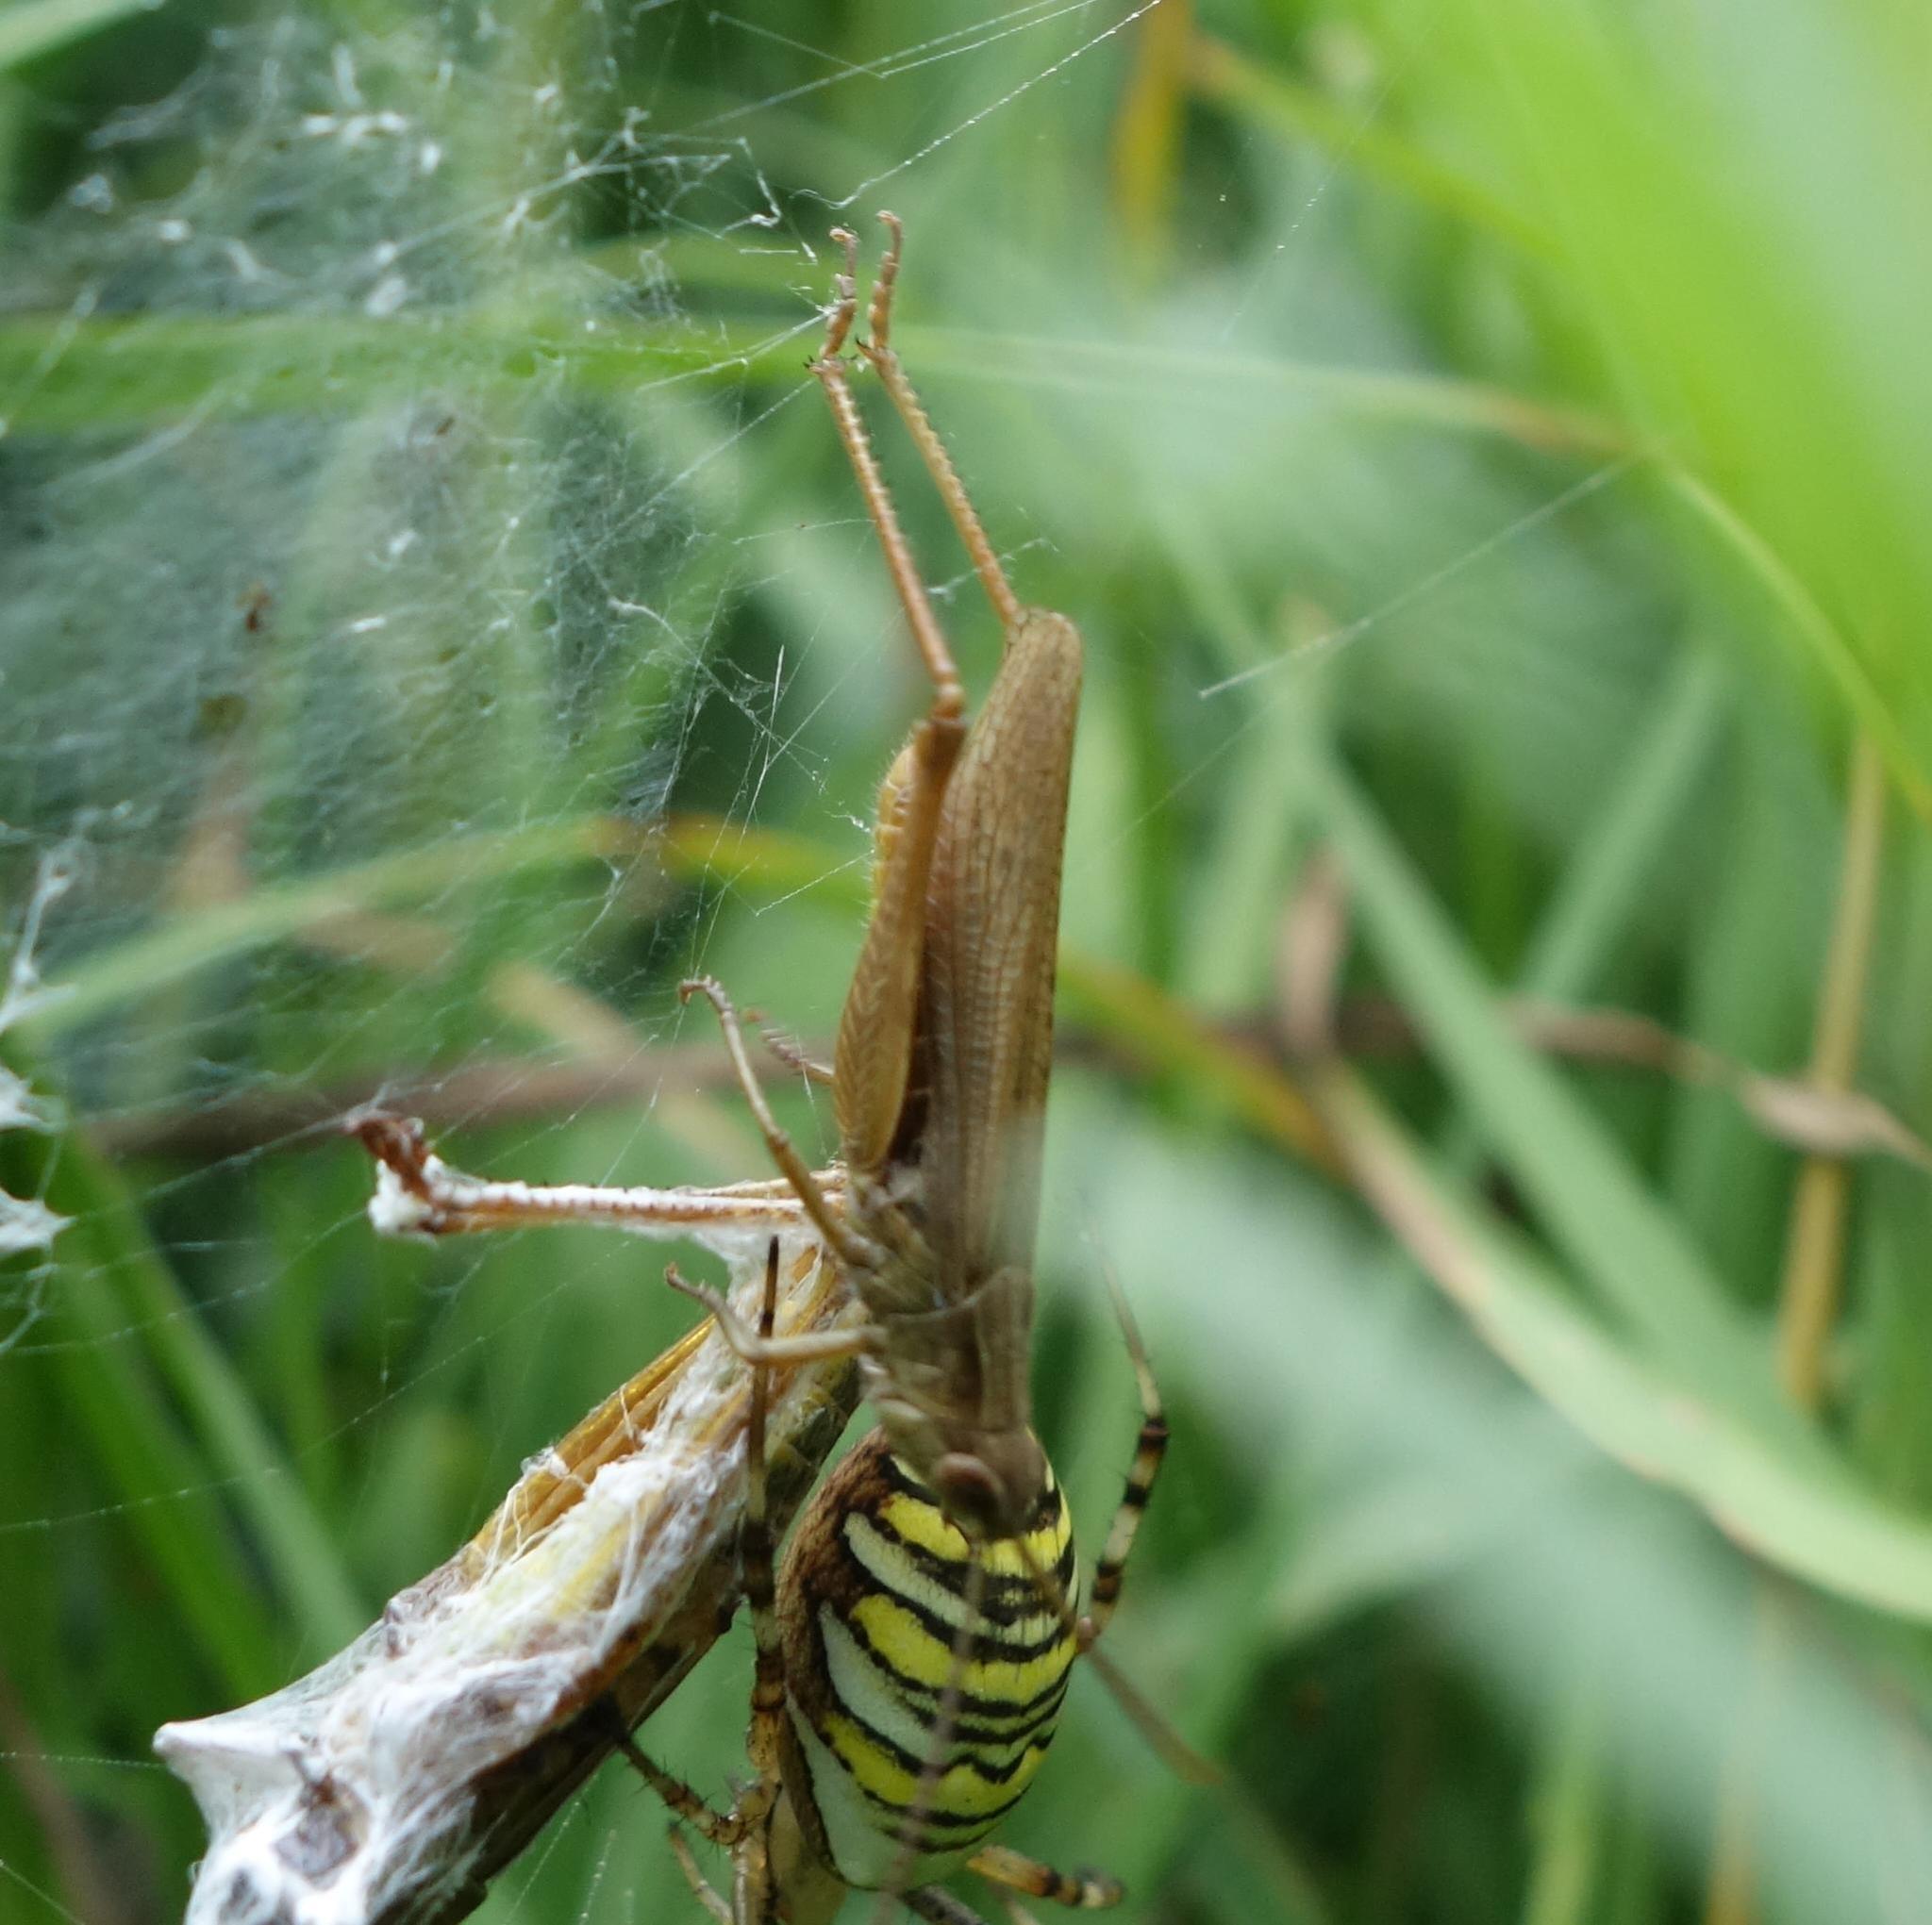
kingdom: Animalia
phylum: Arthropoda
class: Insecta
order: Orthoptera
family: Acrididae
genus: Chorthippus
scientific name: Chorthippus dorsatus
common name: Steppe grasshopper
